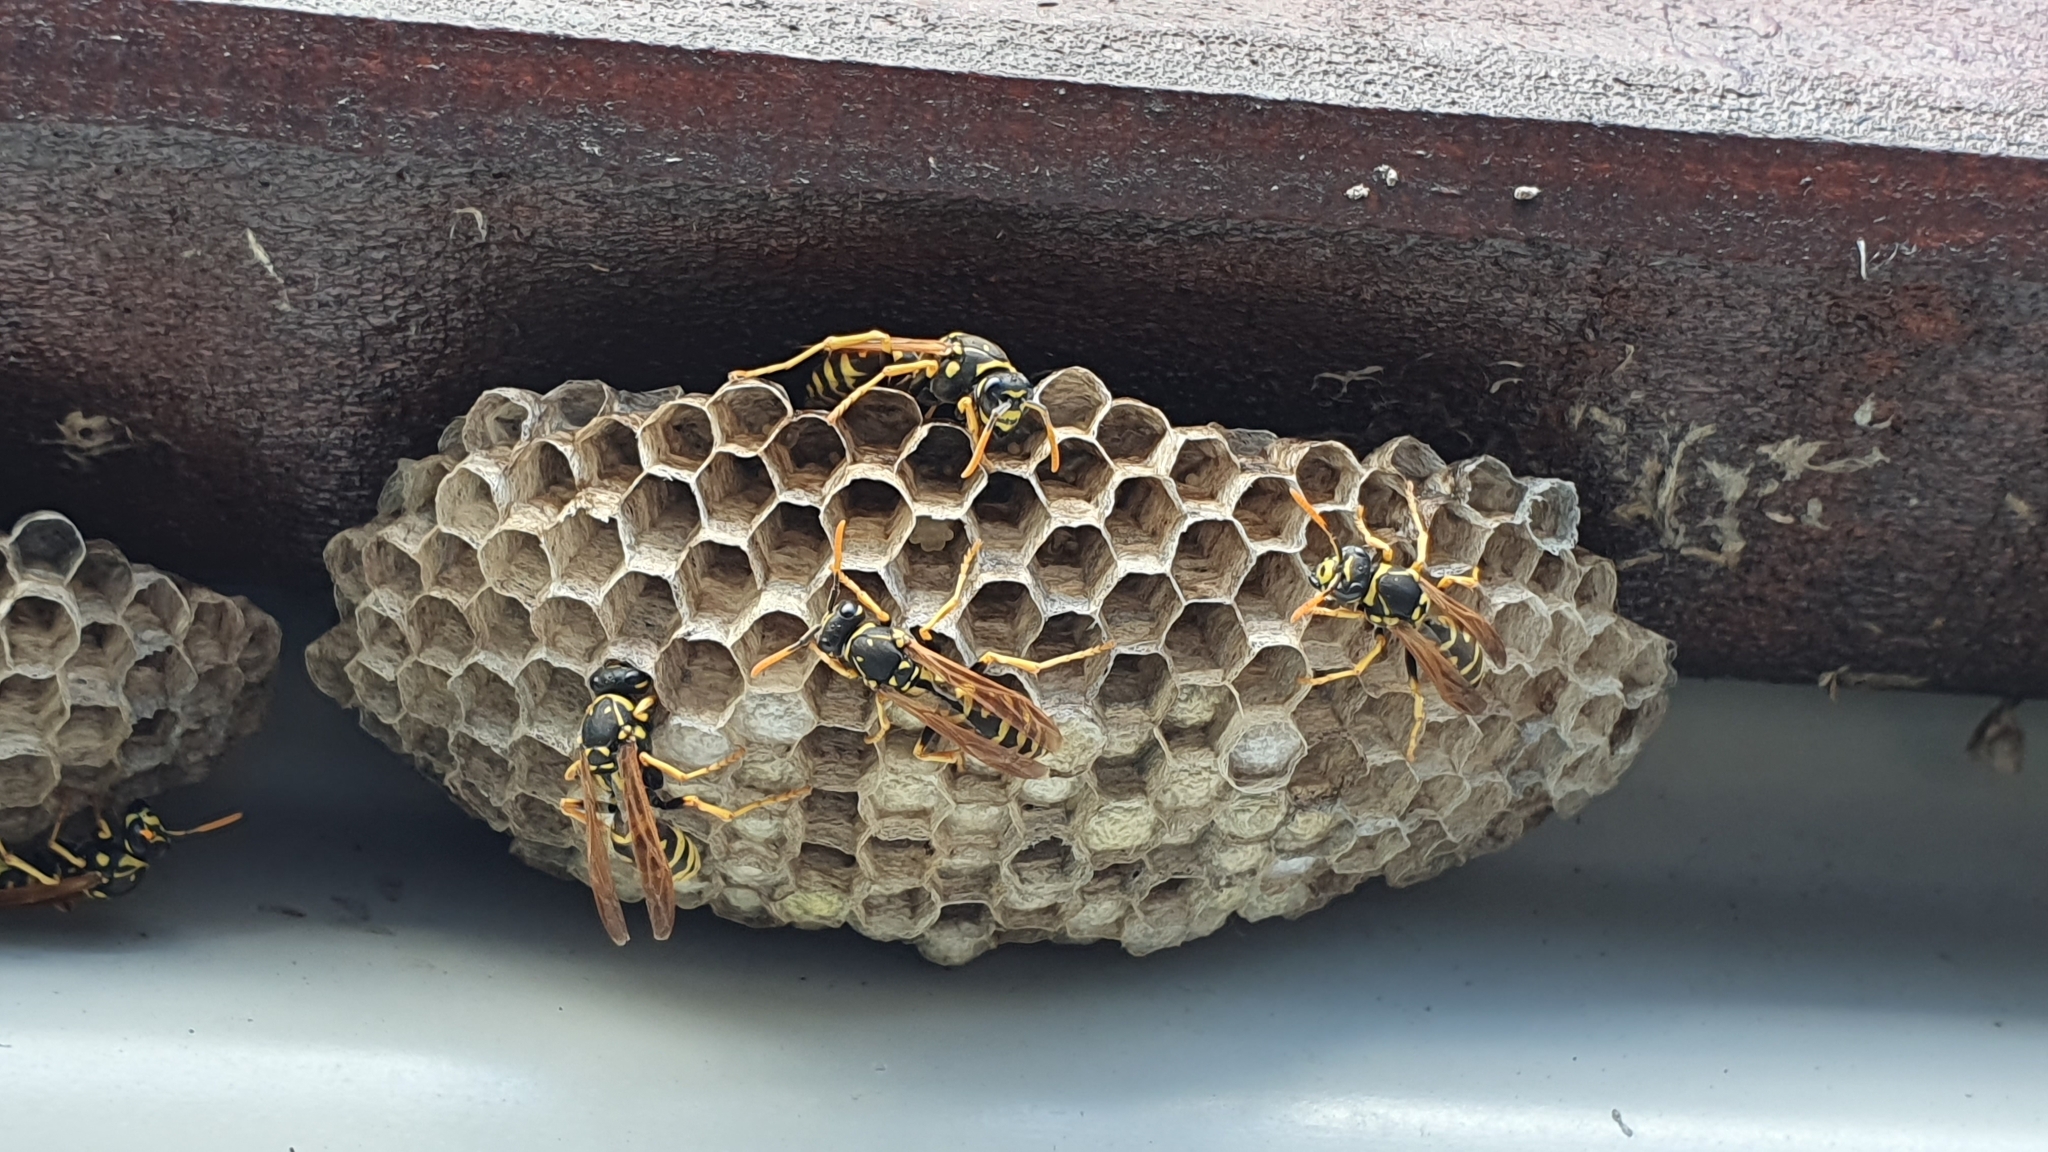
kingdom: Animalia
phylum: Arthropoda
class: Insecta
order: Hymenoptera
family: Eumenidae
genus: Polistes
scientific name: Polistes dominula
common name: Paper wasp
